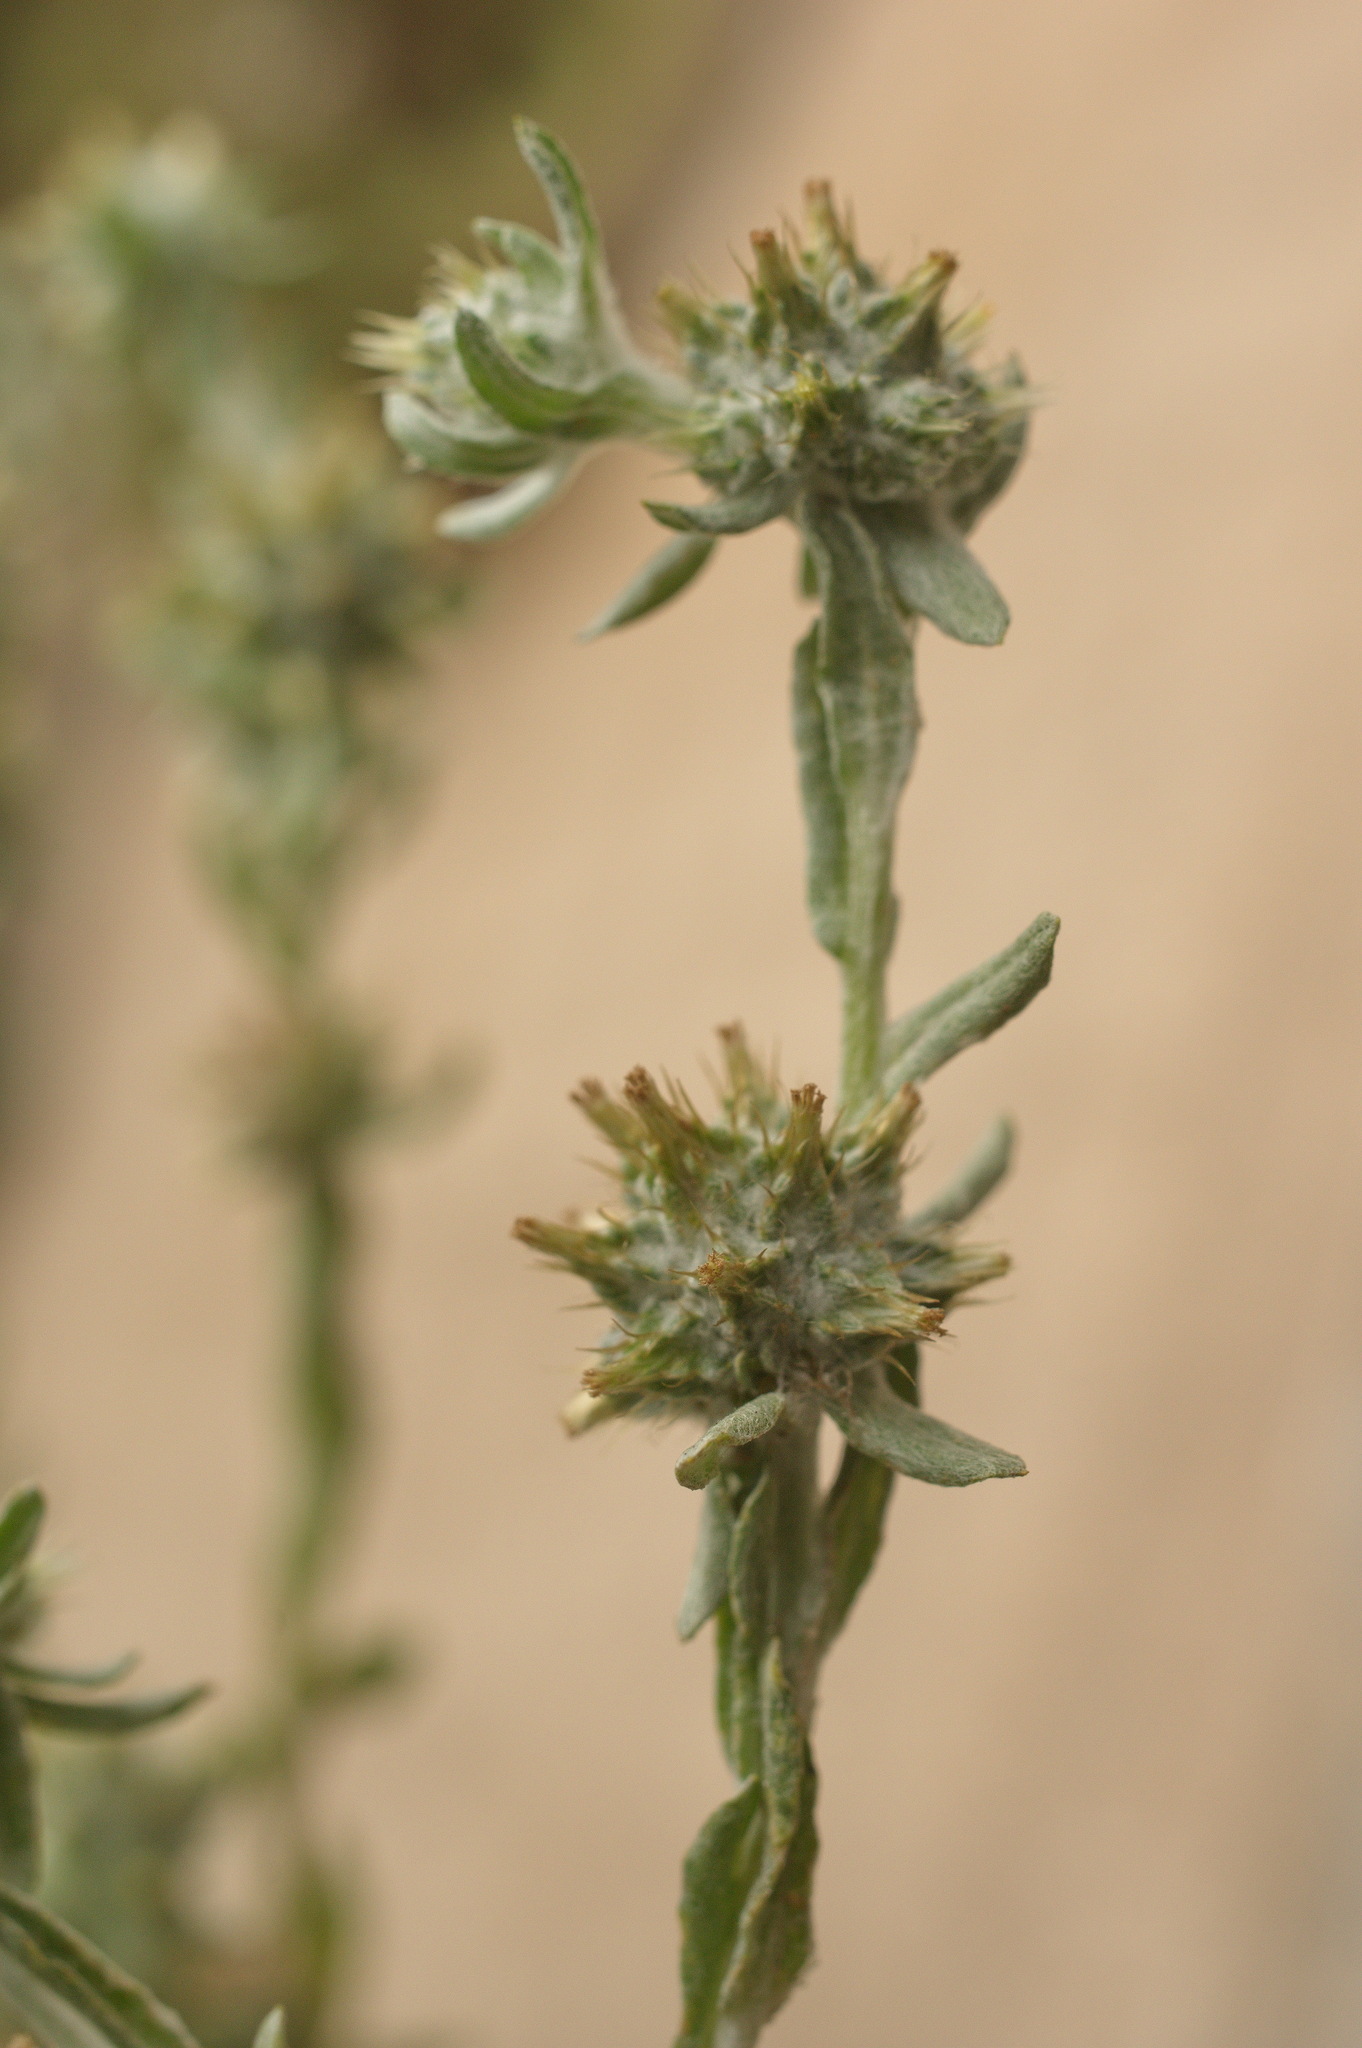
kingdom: Plantae
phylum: Tracheophyta
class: Magnoliopsida
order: Asterales
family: Asteraceae
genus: Filago
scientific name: Filago pyramidata
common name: Broad-leaved cudweed
